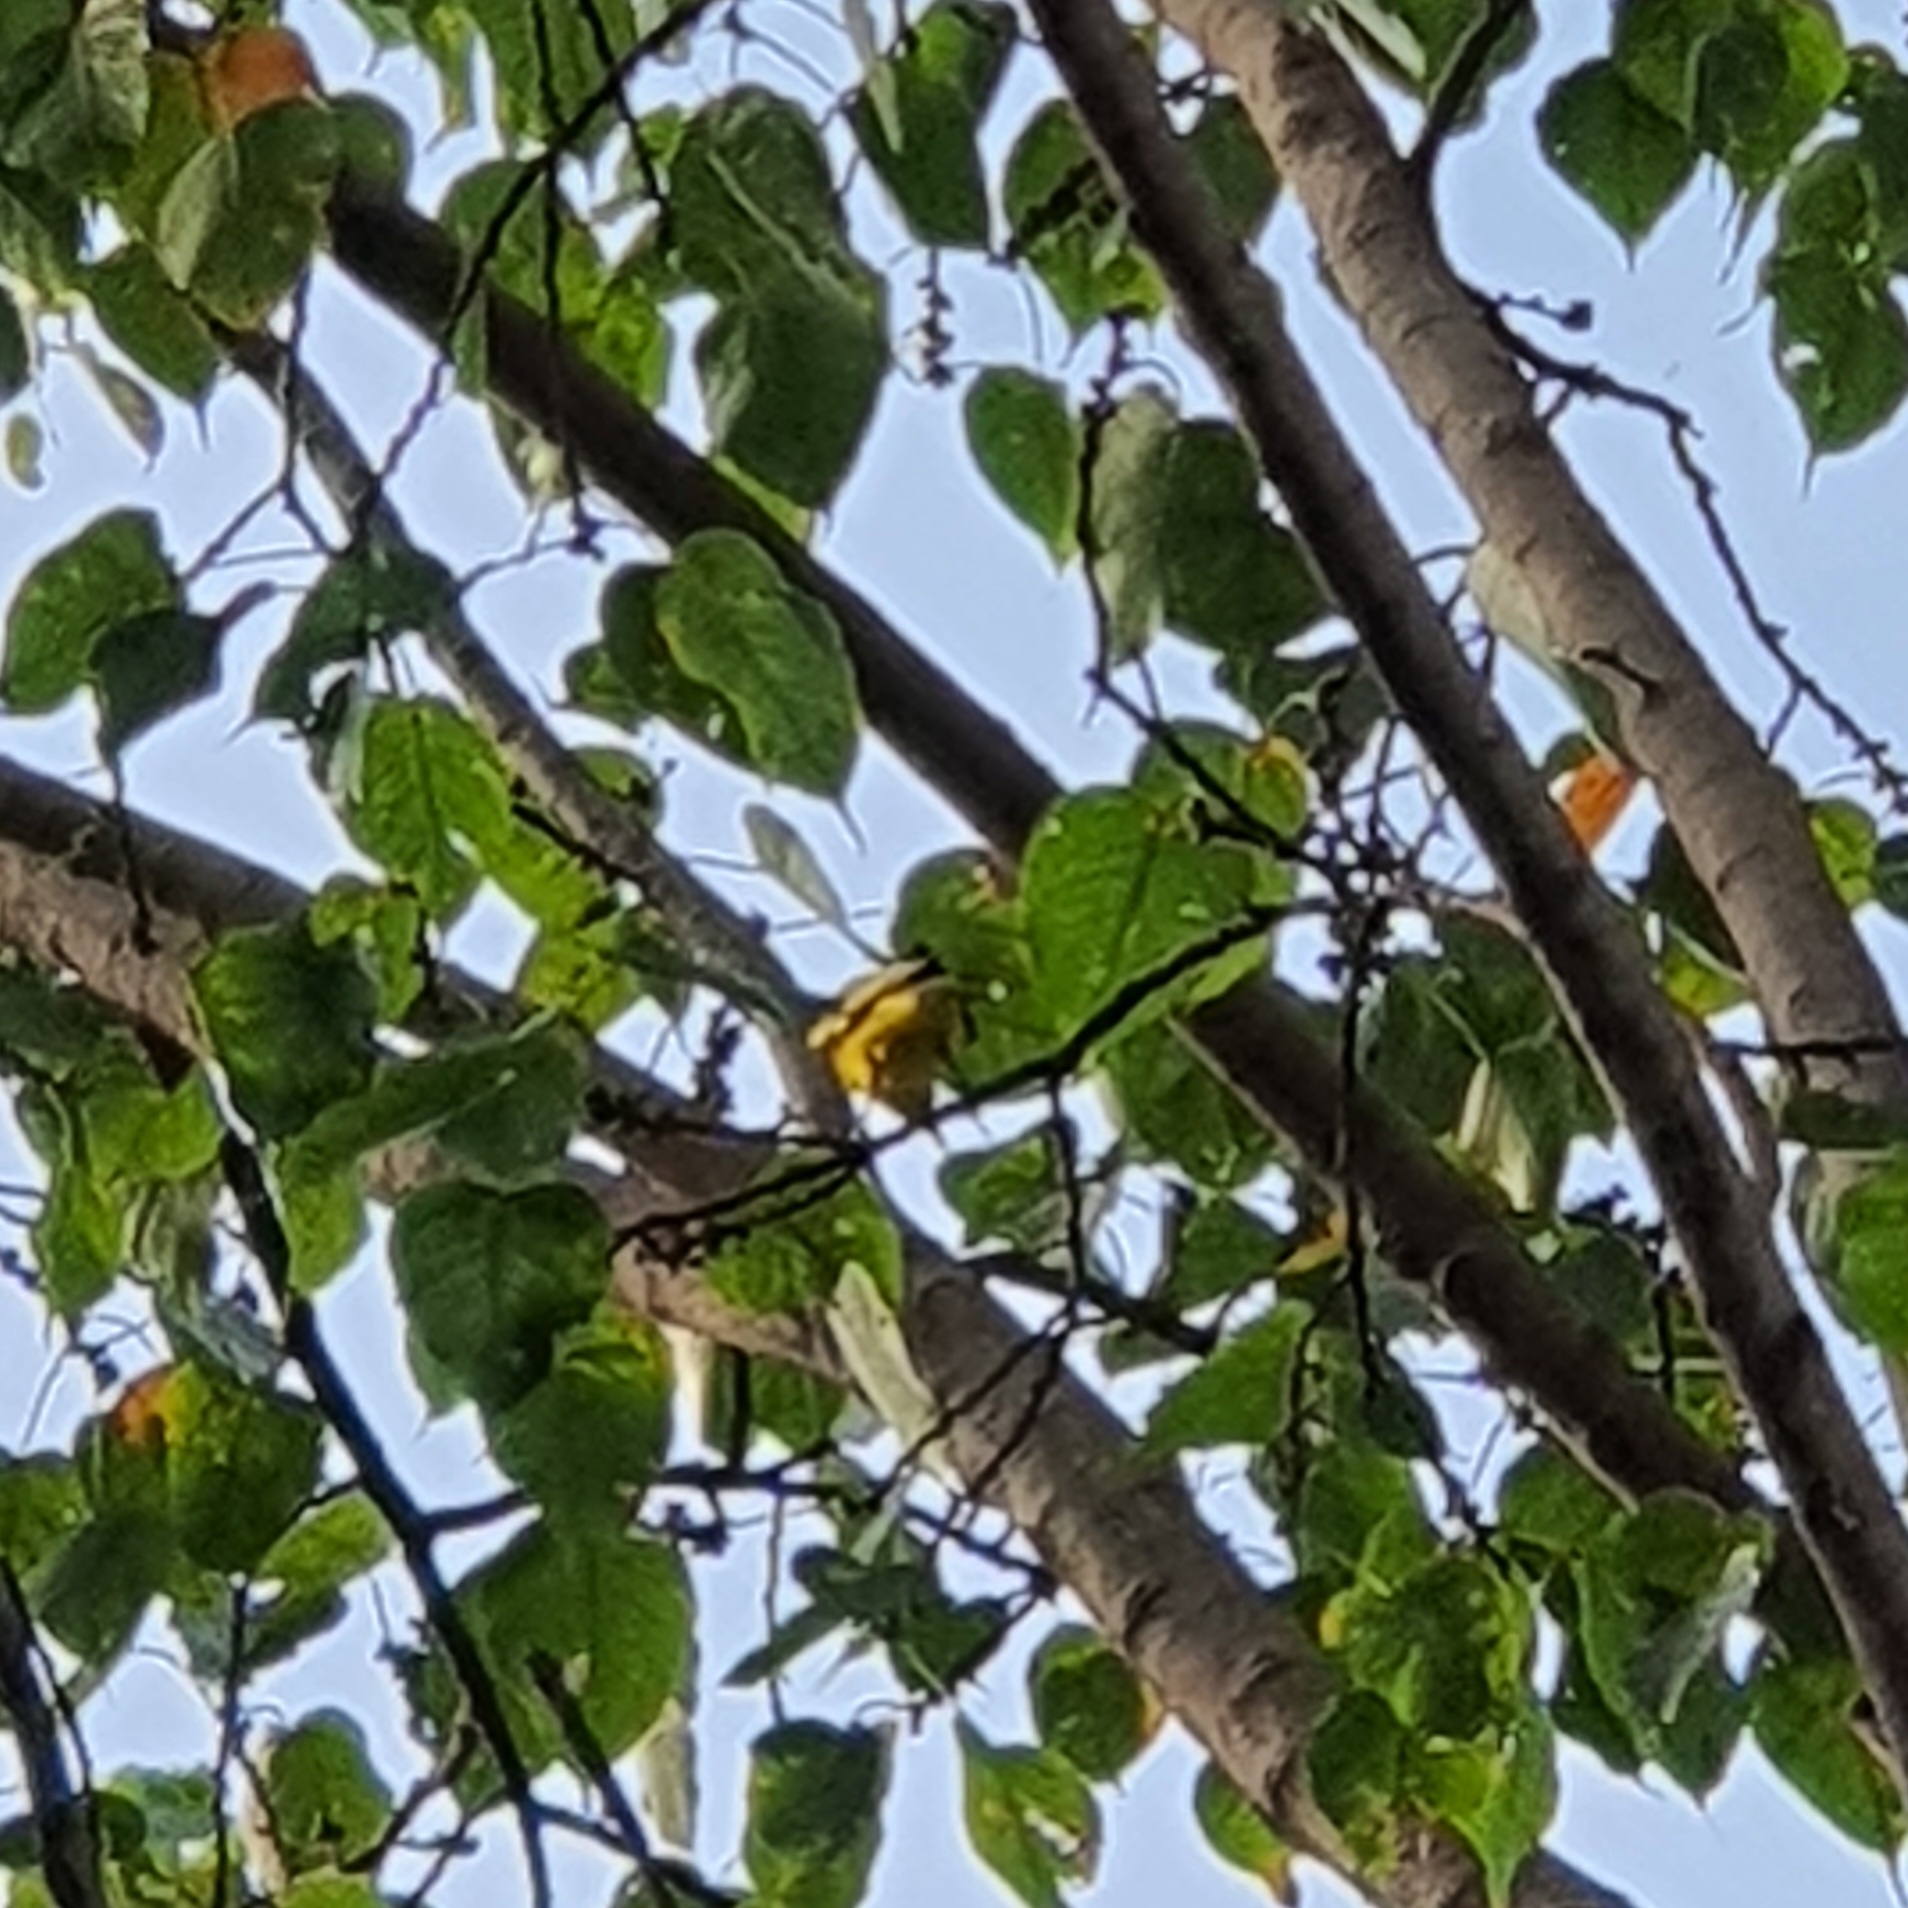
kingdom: Animalia
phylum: Chordata
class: Aves
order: Passeriformes
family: Oriolidae
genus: Oriolus
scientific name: Oriolus chinensis
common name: Black-naped oriole
